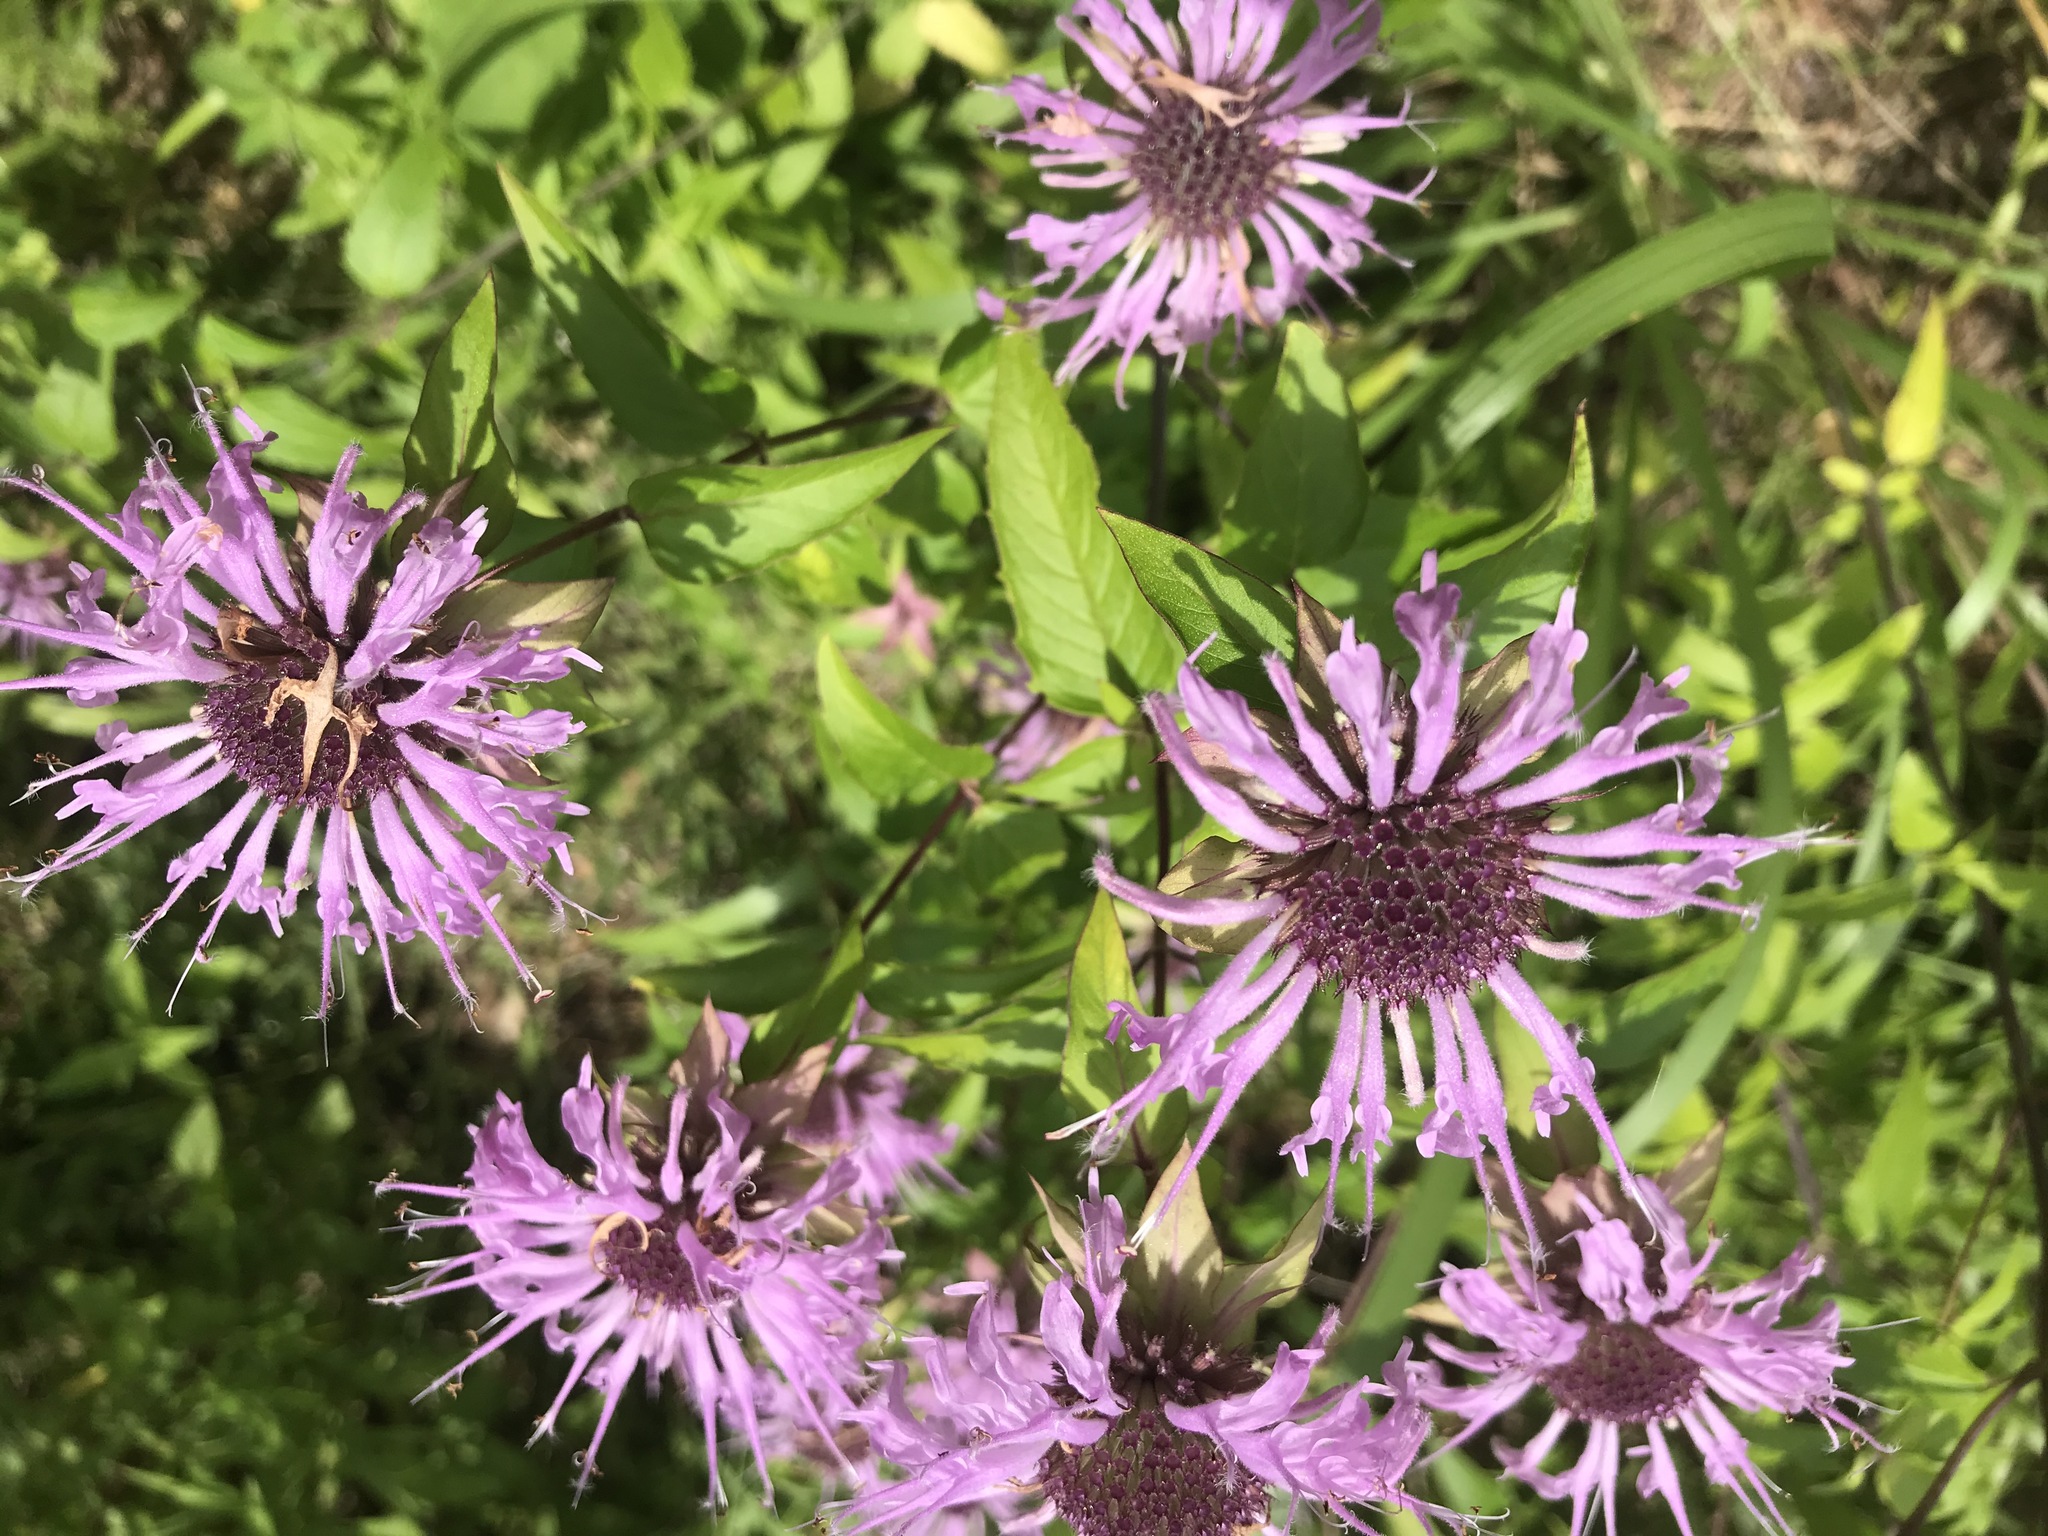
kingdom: Plantae
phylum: Tracheophyta
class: Magnoliopsida
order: Lamiales
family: Lamiaceae
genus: Monarda
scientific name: Monarda fistulosa
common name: Purple beebalm
